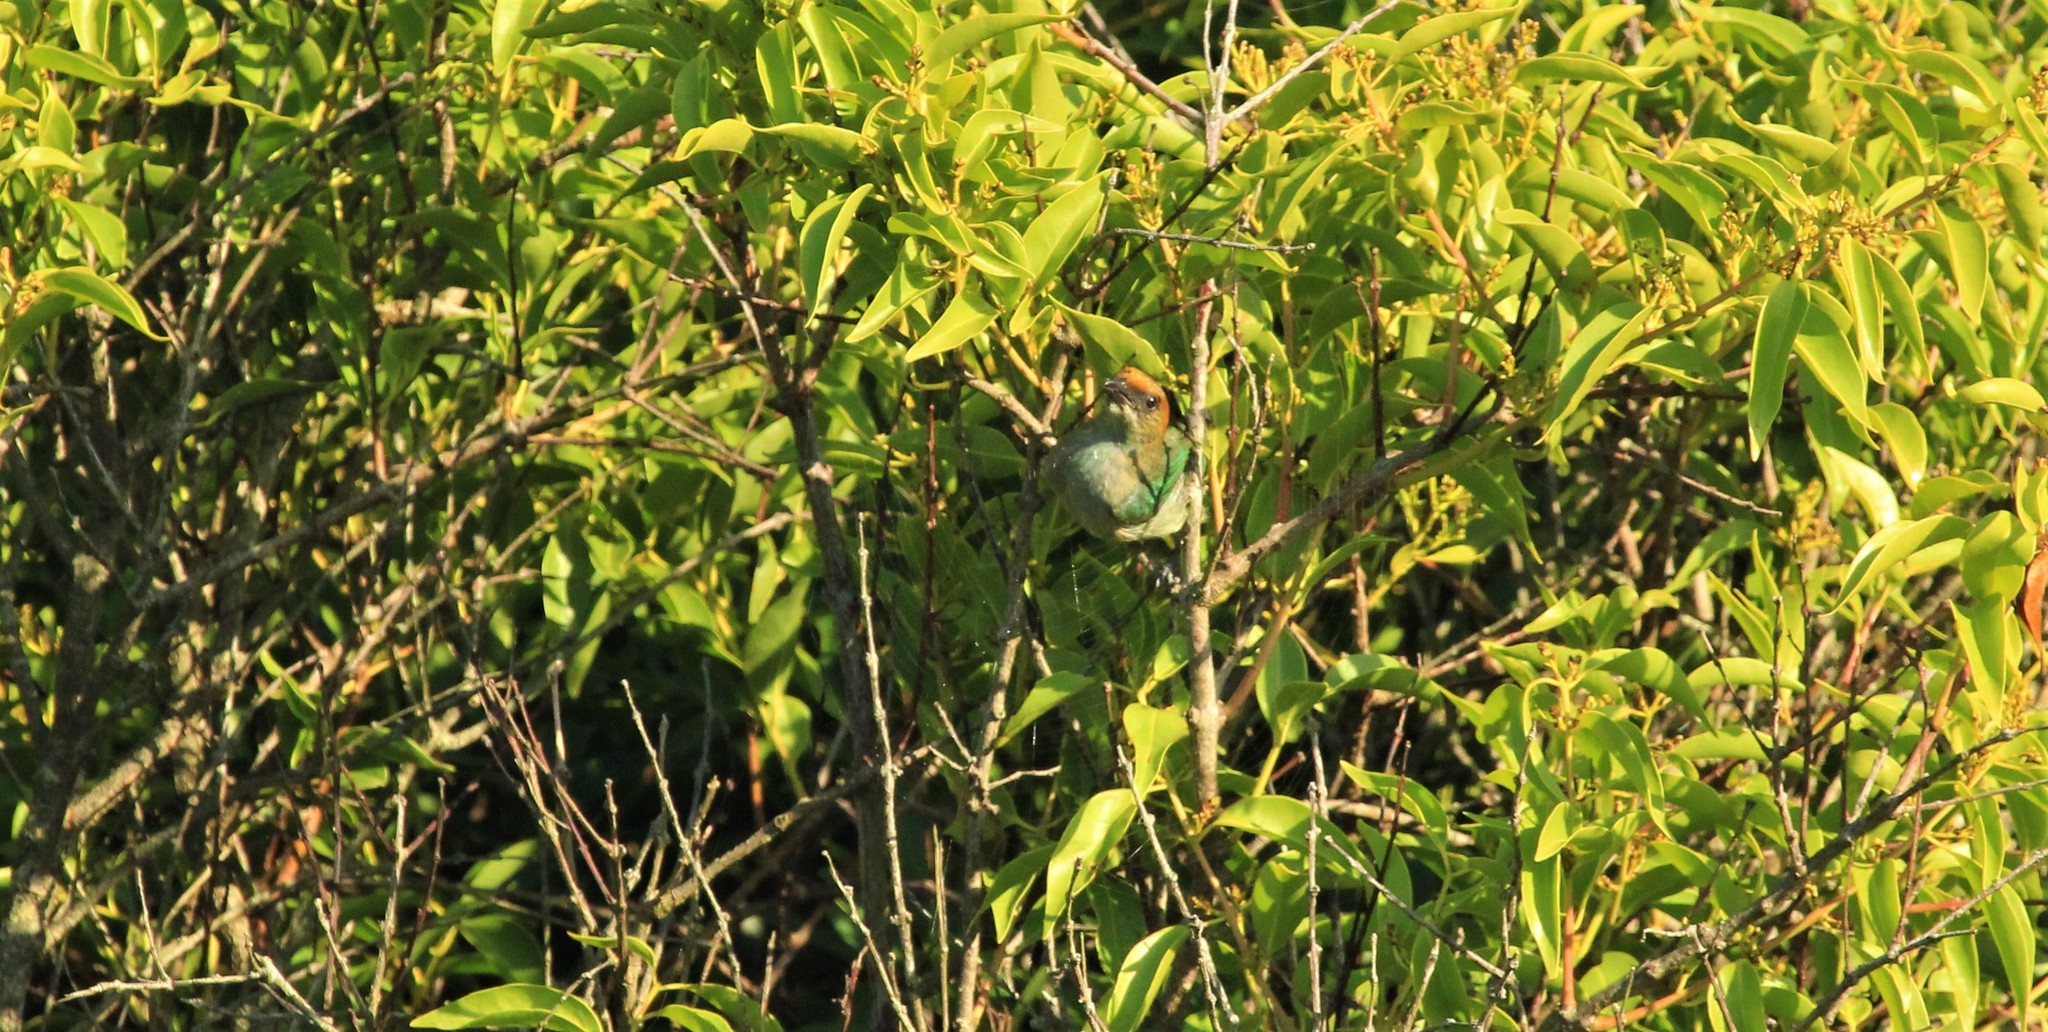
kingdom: Animalia
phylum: Chordata
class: Aves
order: Passeriformes
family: Thraupidae
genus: Stilpnia
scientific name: Stilpnia preciosa
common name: Chestnut-backed tanager
